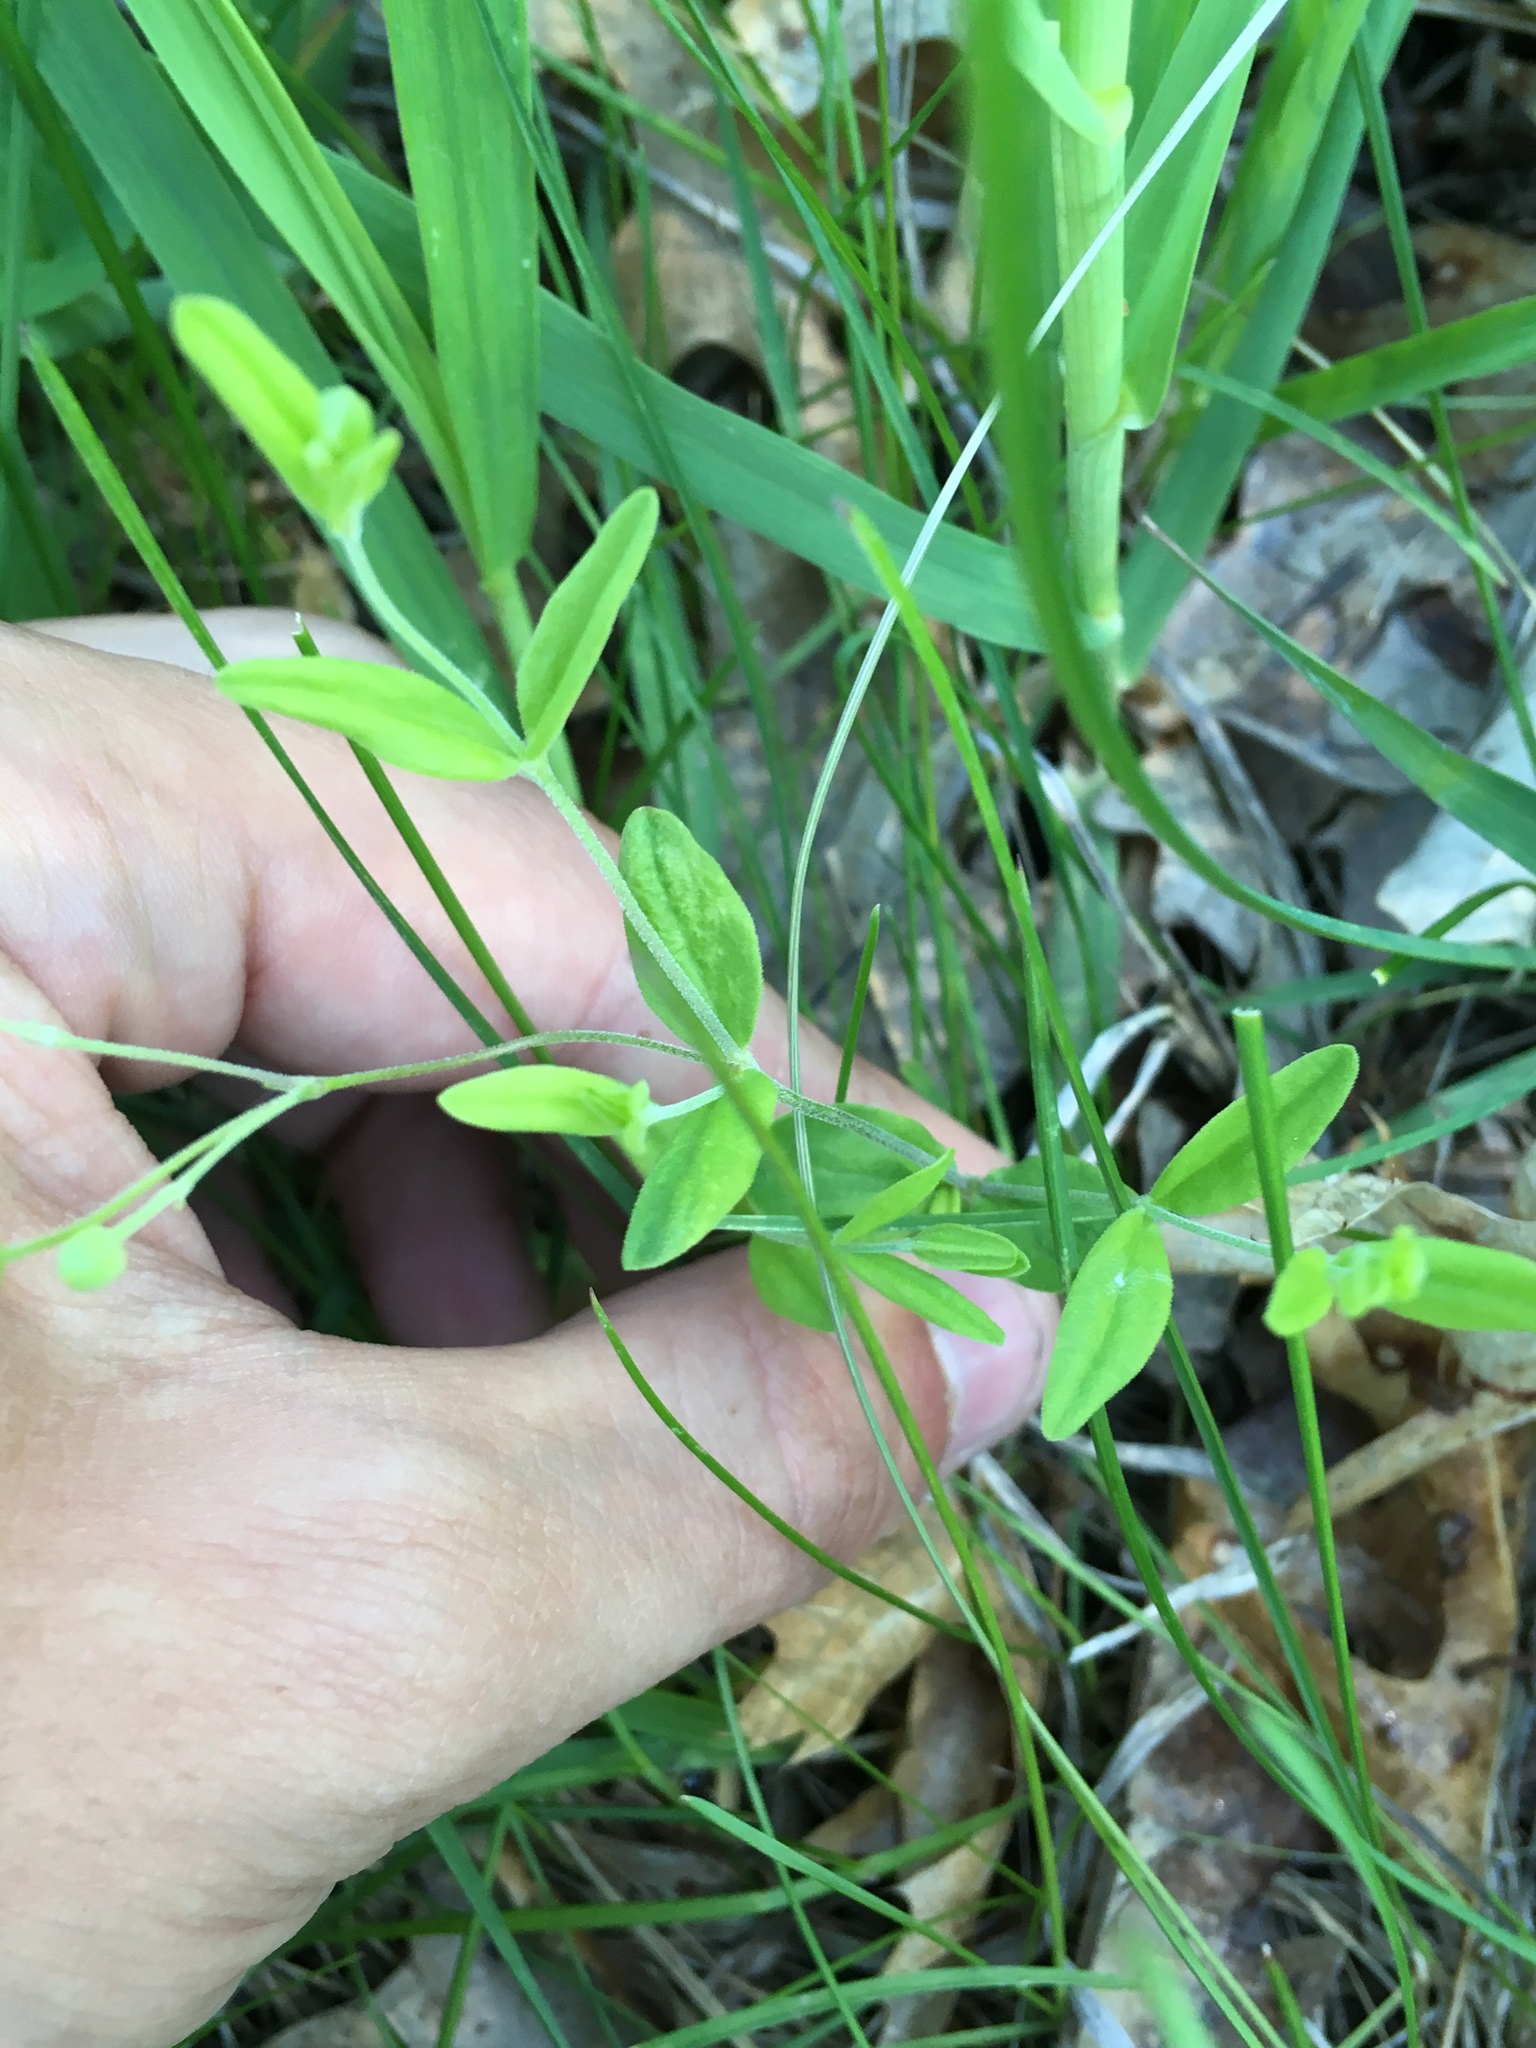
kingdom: Plantae
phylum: Tracheophyta
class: Magnoliopsida
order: Caryophyllales
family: Caryophyllaceae
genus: Moehringia
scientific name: Moehringia lateriflora
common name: Blunt-leaved sandwort
